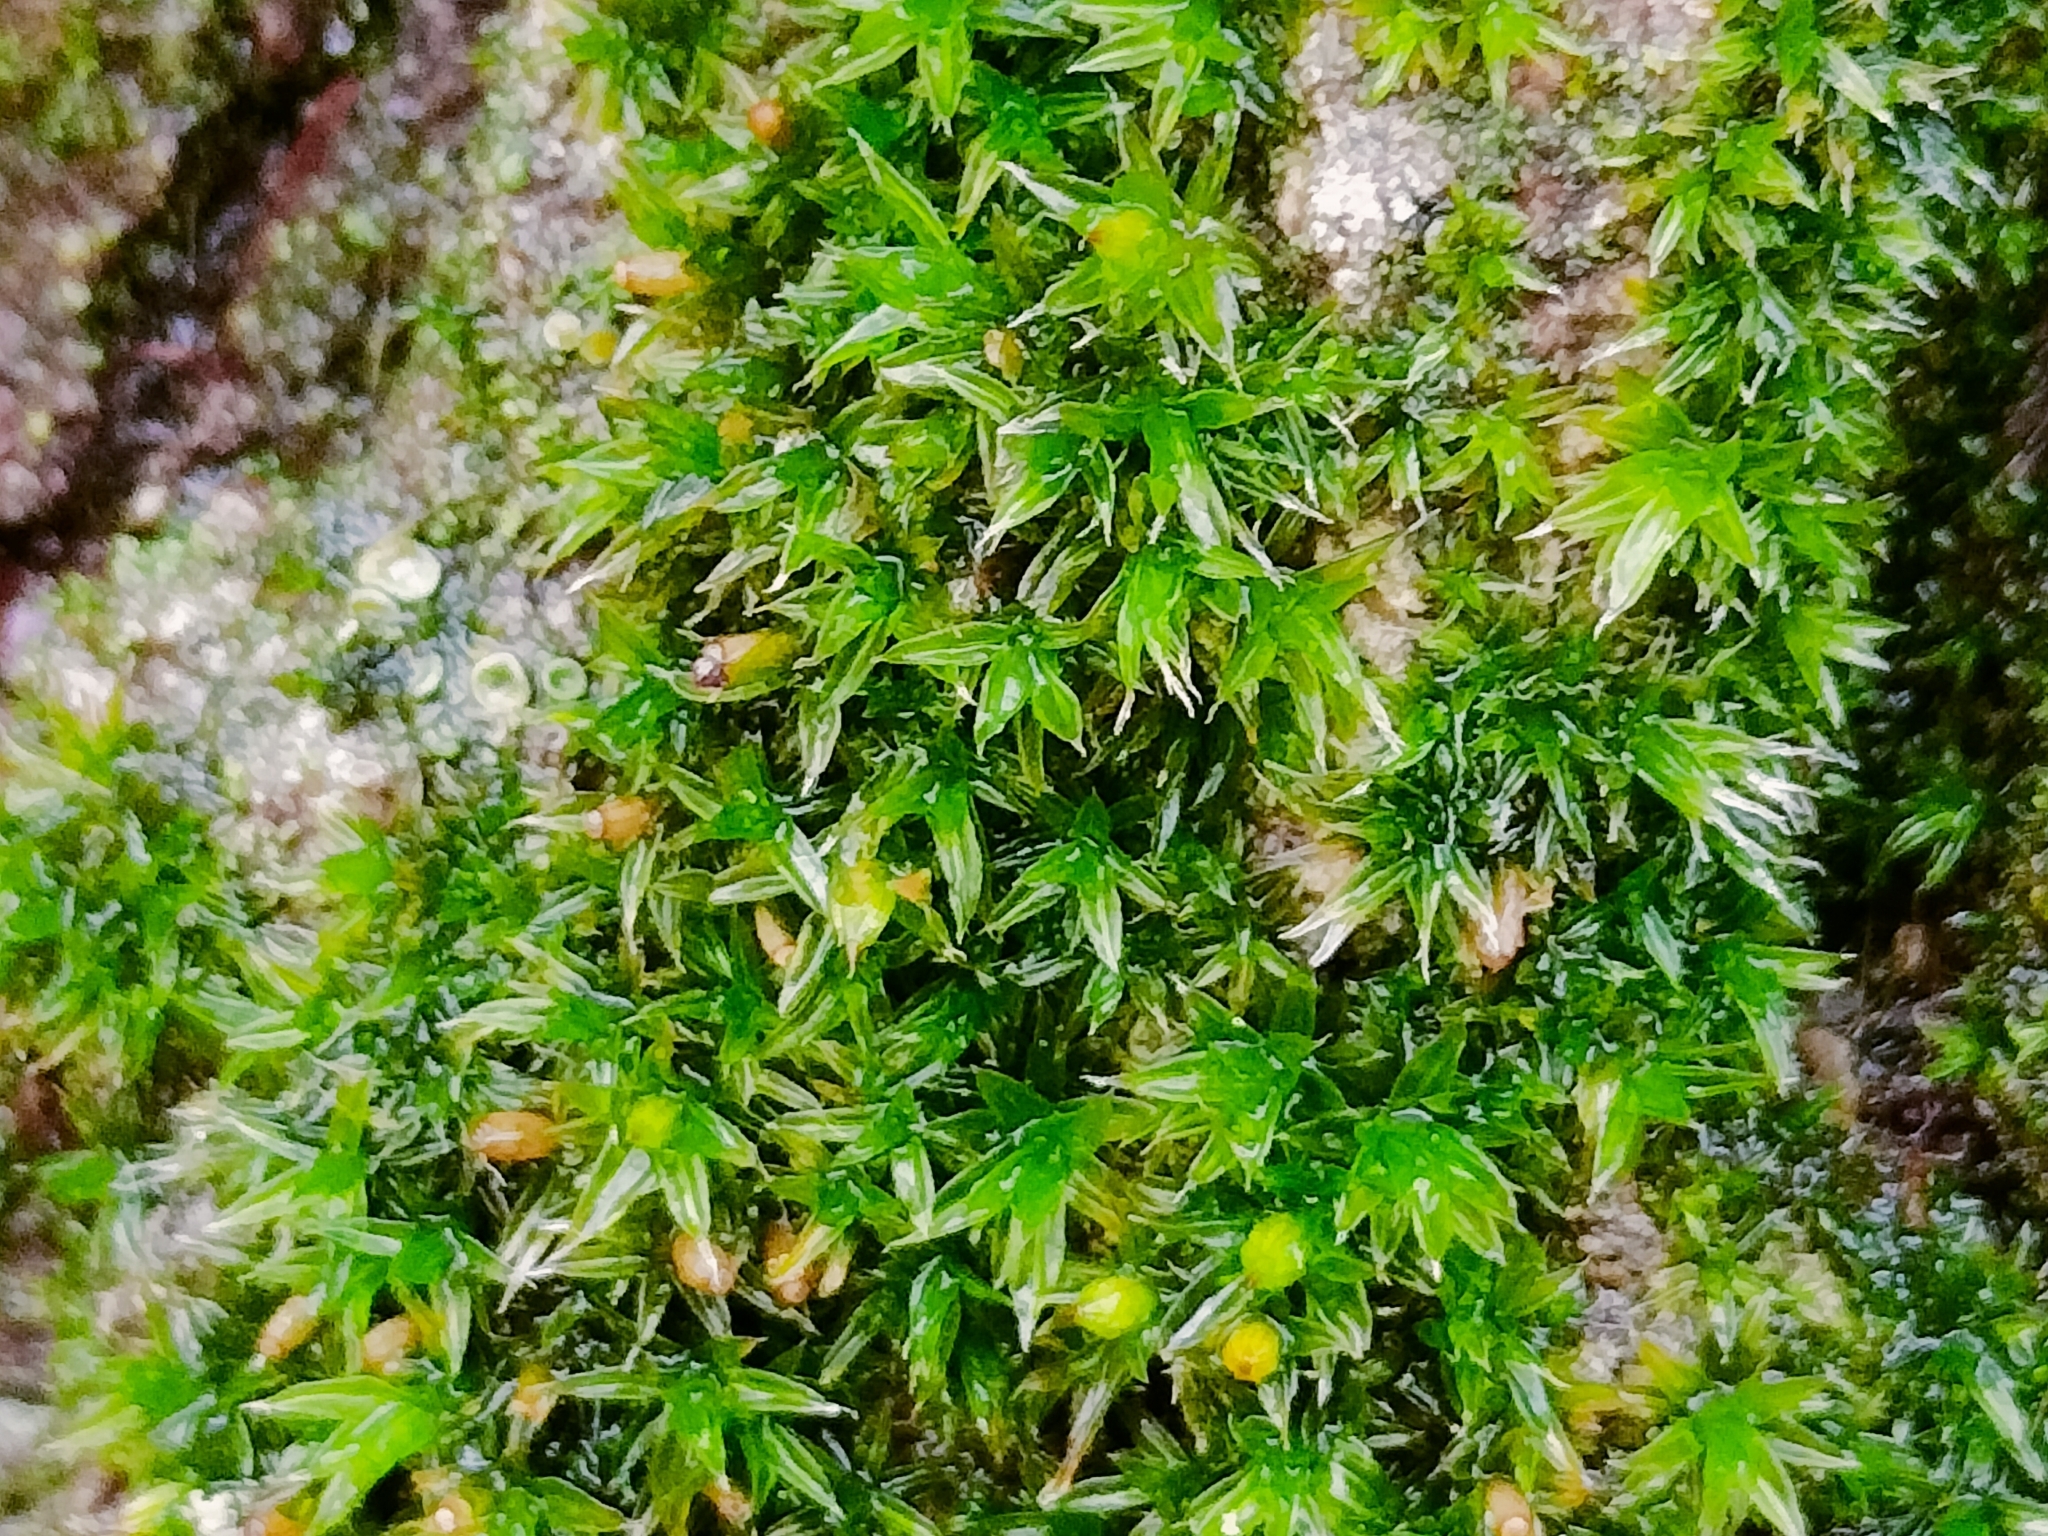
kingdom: Plantae
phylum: Bryophyta
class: Bryopsida
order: Orthotrichales
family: Orthotrichaceae
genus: Orthotrichum
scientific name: Orthotrichum diaphanum
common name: White-tipped bristle-moss
